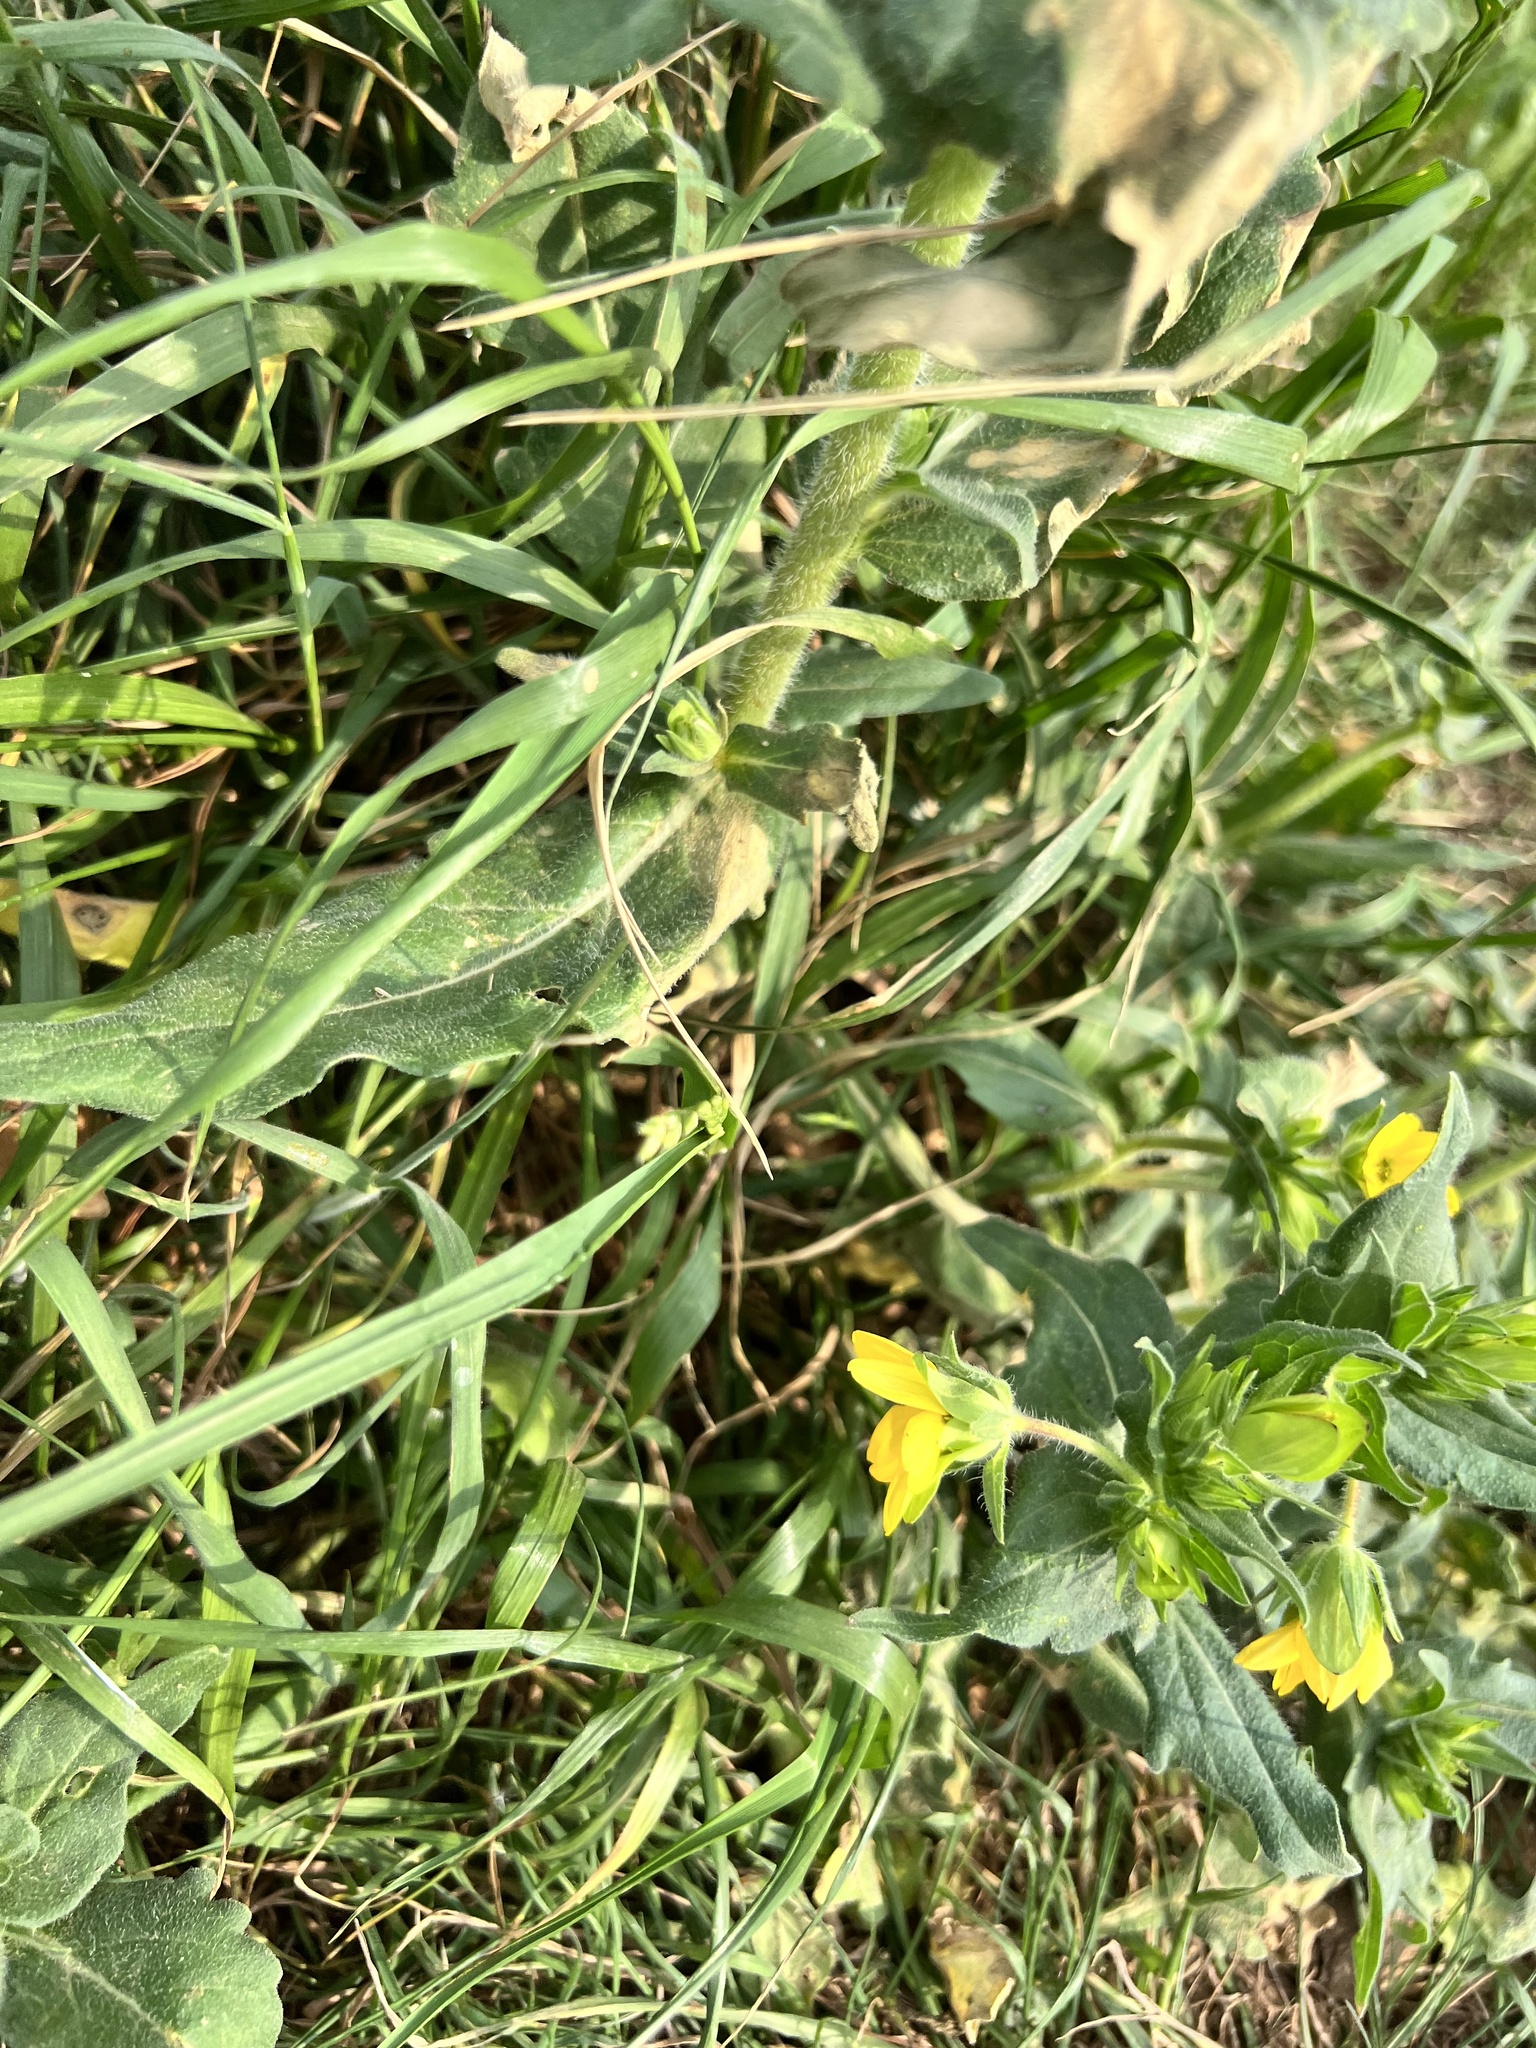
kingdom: Plantae
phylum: Tracheophyta
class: Magnoliopsida
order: Asterales
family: Asteraceae
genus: Lindheimera
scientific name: Lindheimera texana
